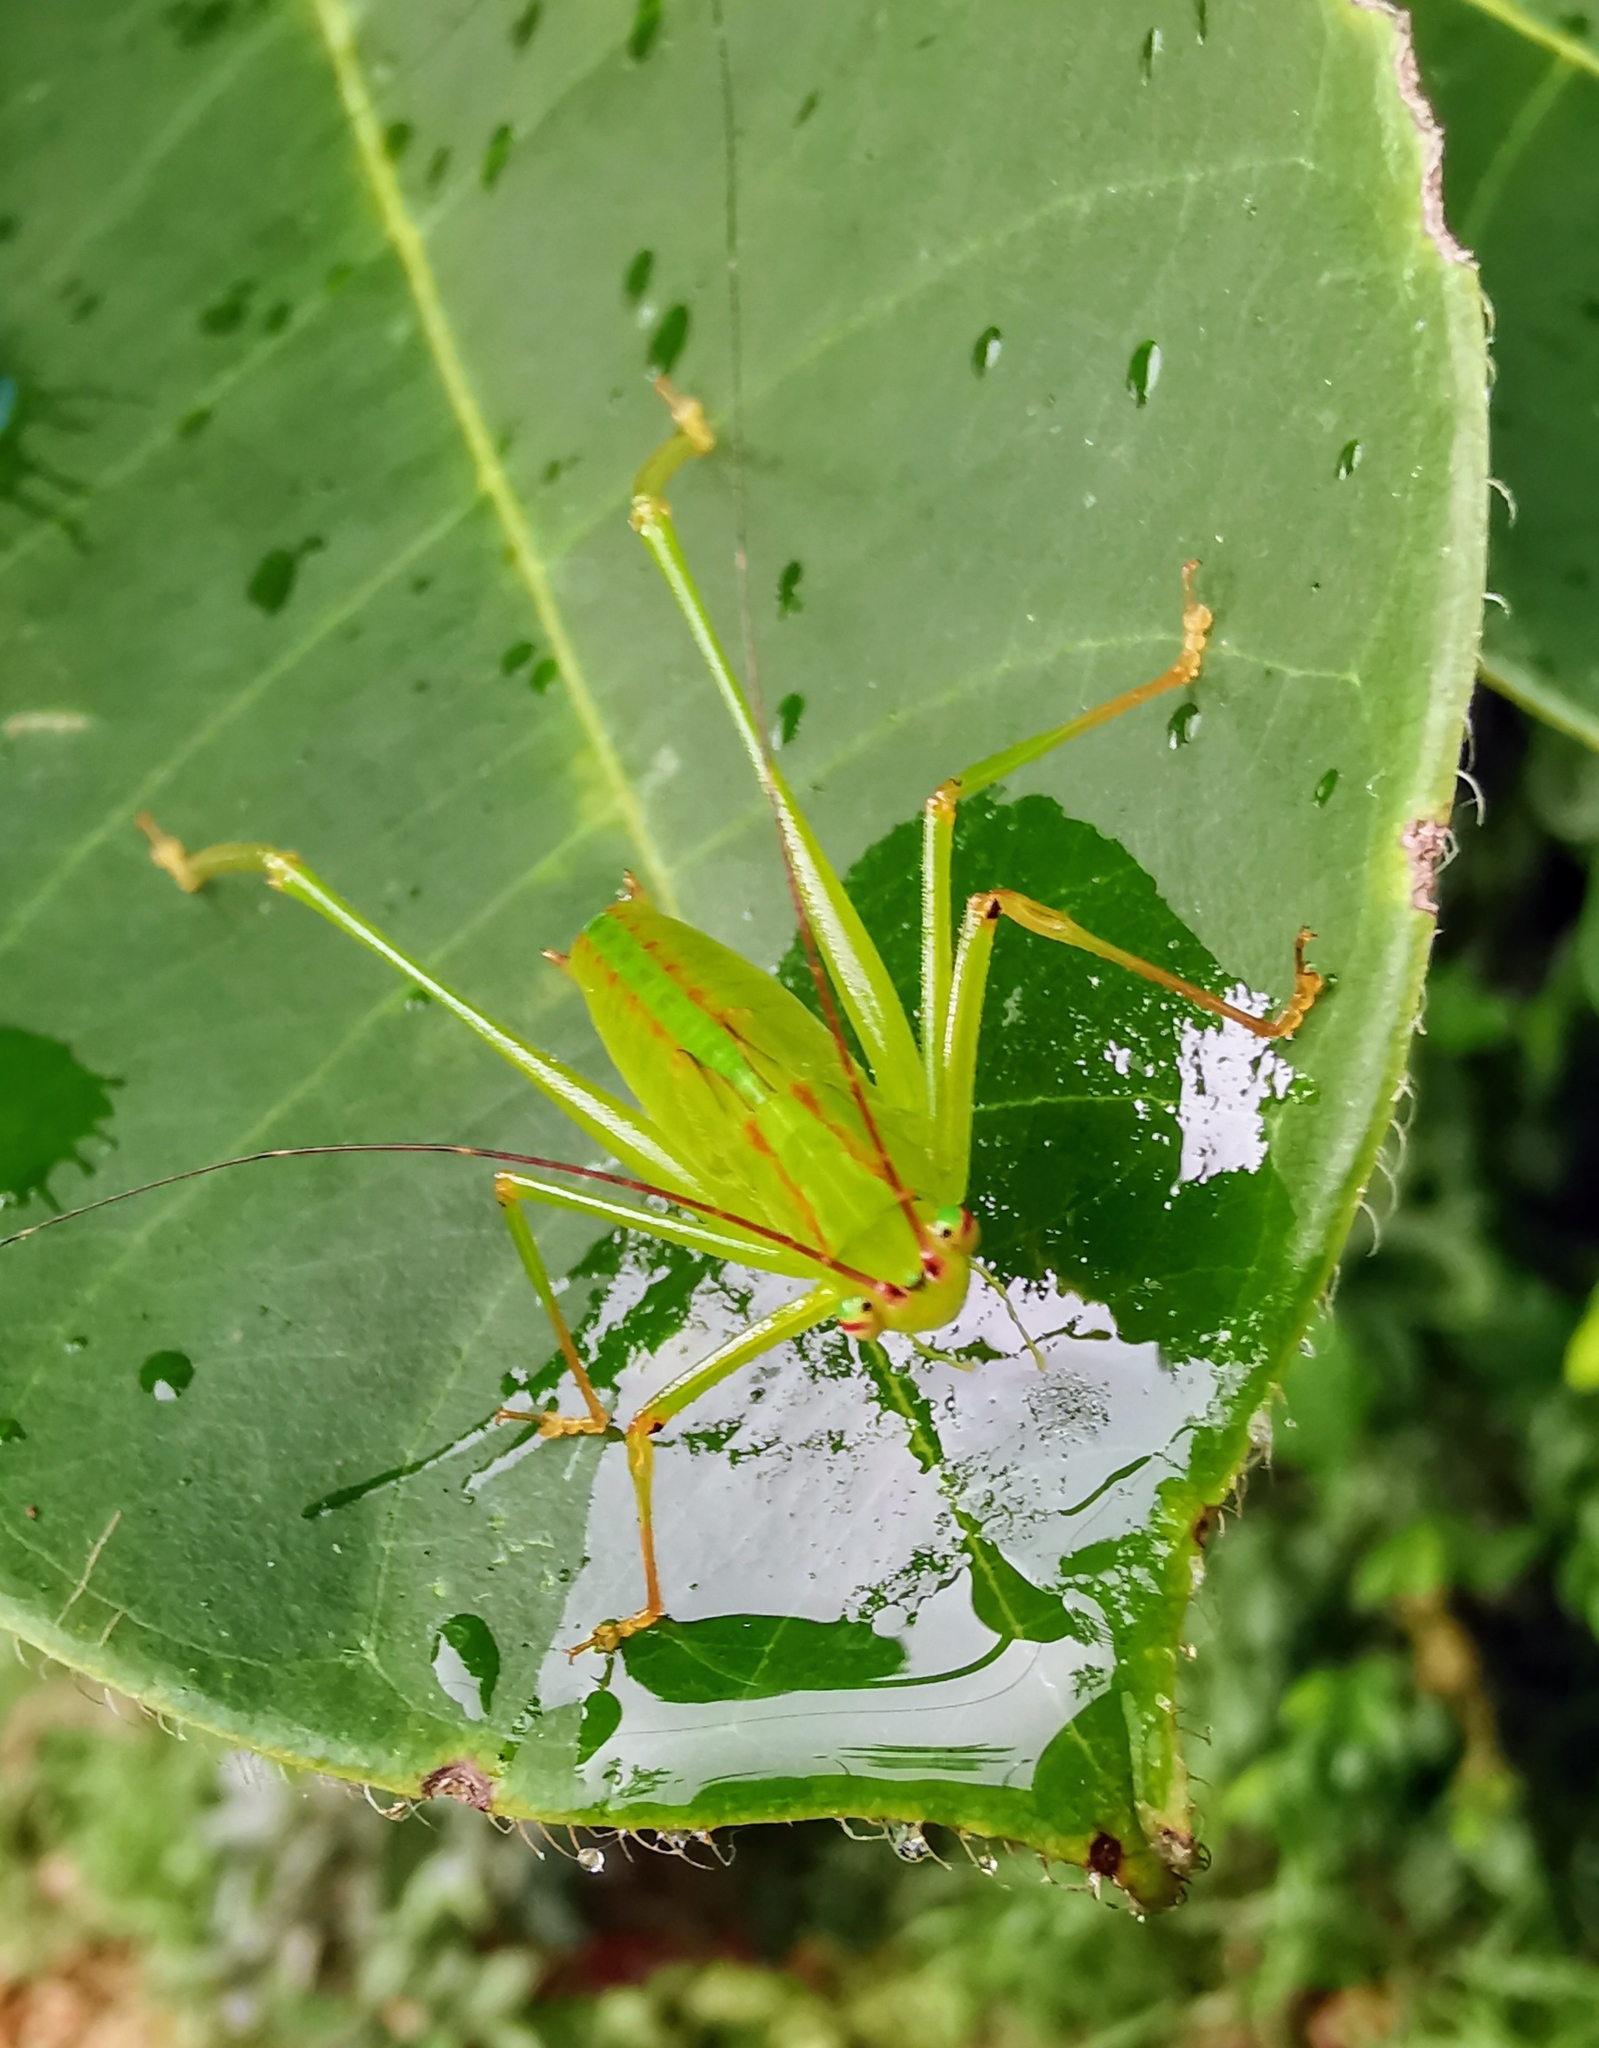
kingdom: Animalia
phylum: Arthropoda
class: Insecta
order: Orthoptera
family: Tettigoniidae
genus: Phygela
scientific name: Phygela haanii
